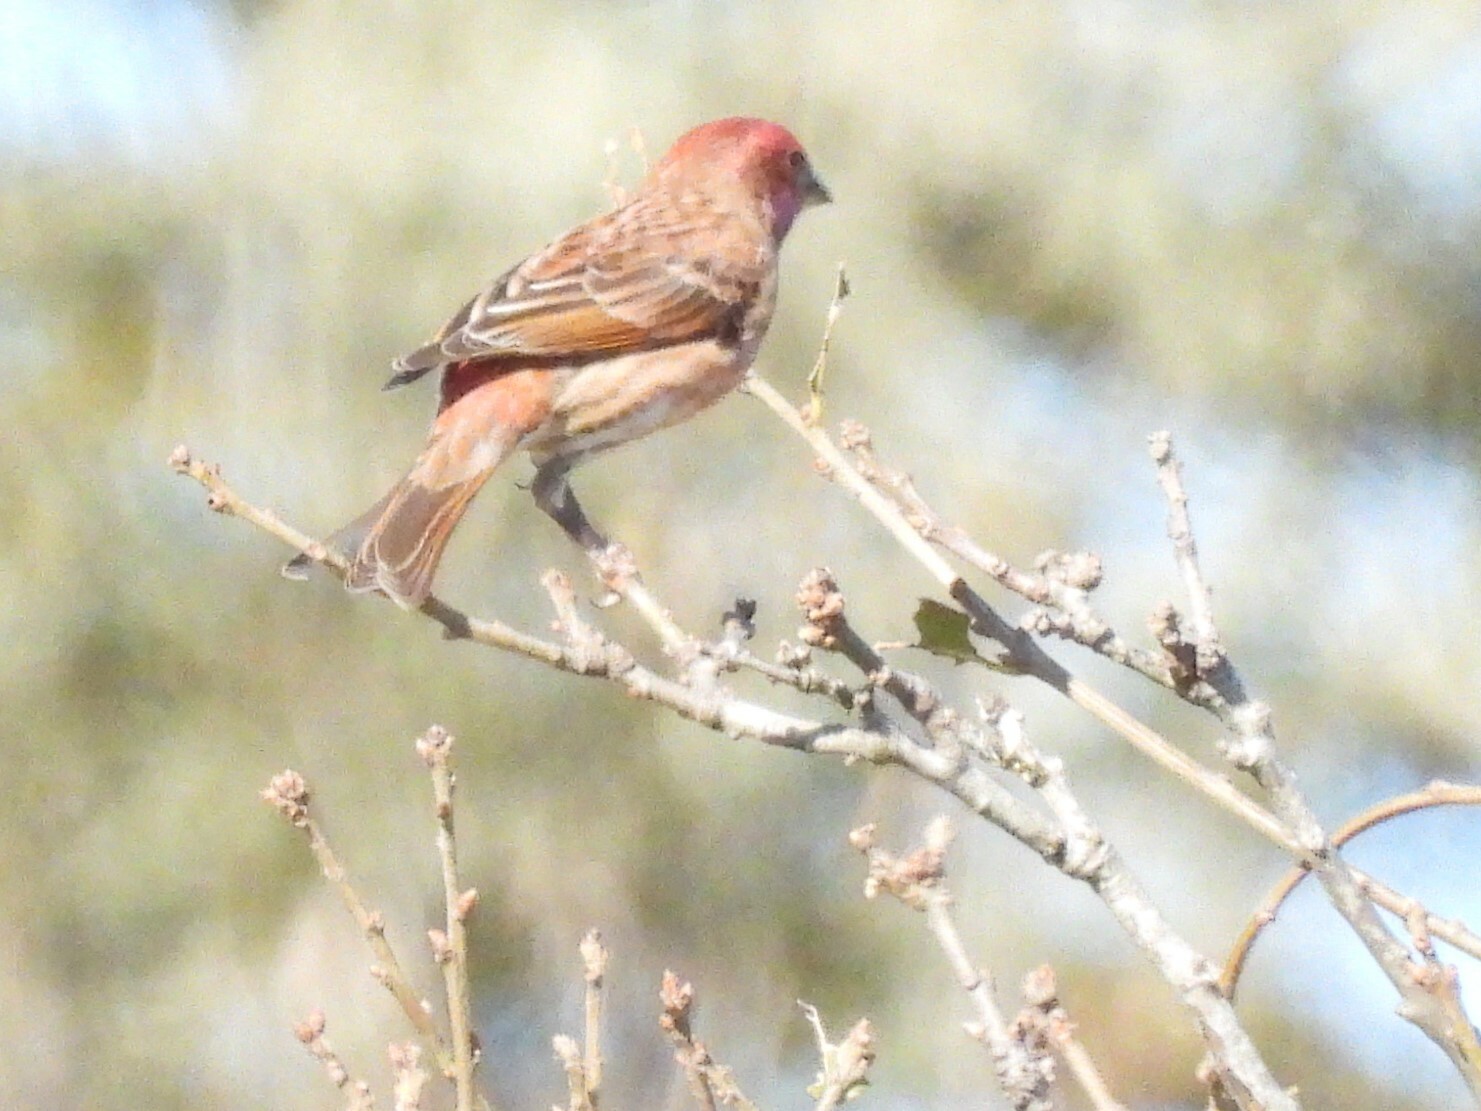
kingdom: Animalia
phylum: Chordata
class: Aves
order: Passeriformes
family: Fringillidae
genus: Haemorhous
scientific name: Haemorhous mexicanus
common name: House finch
